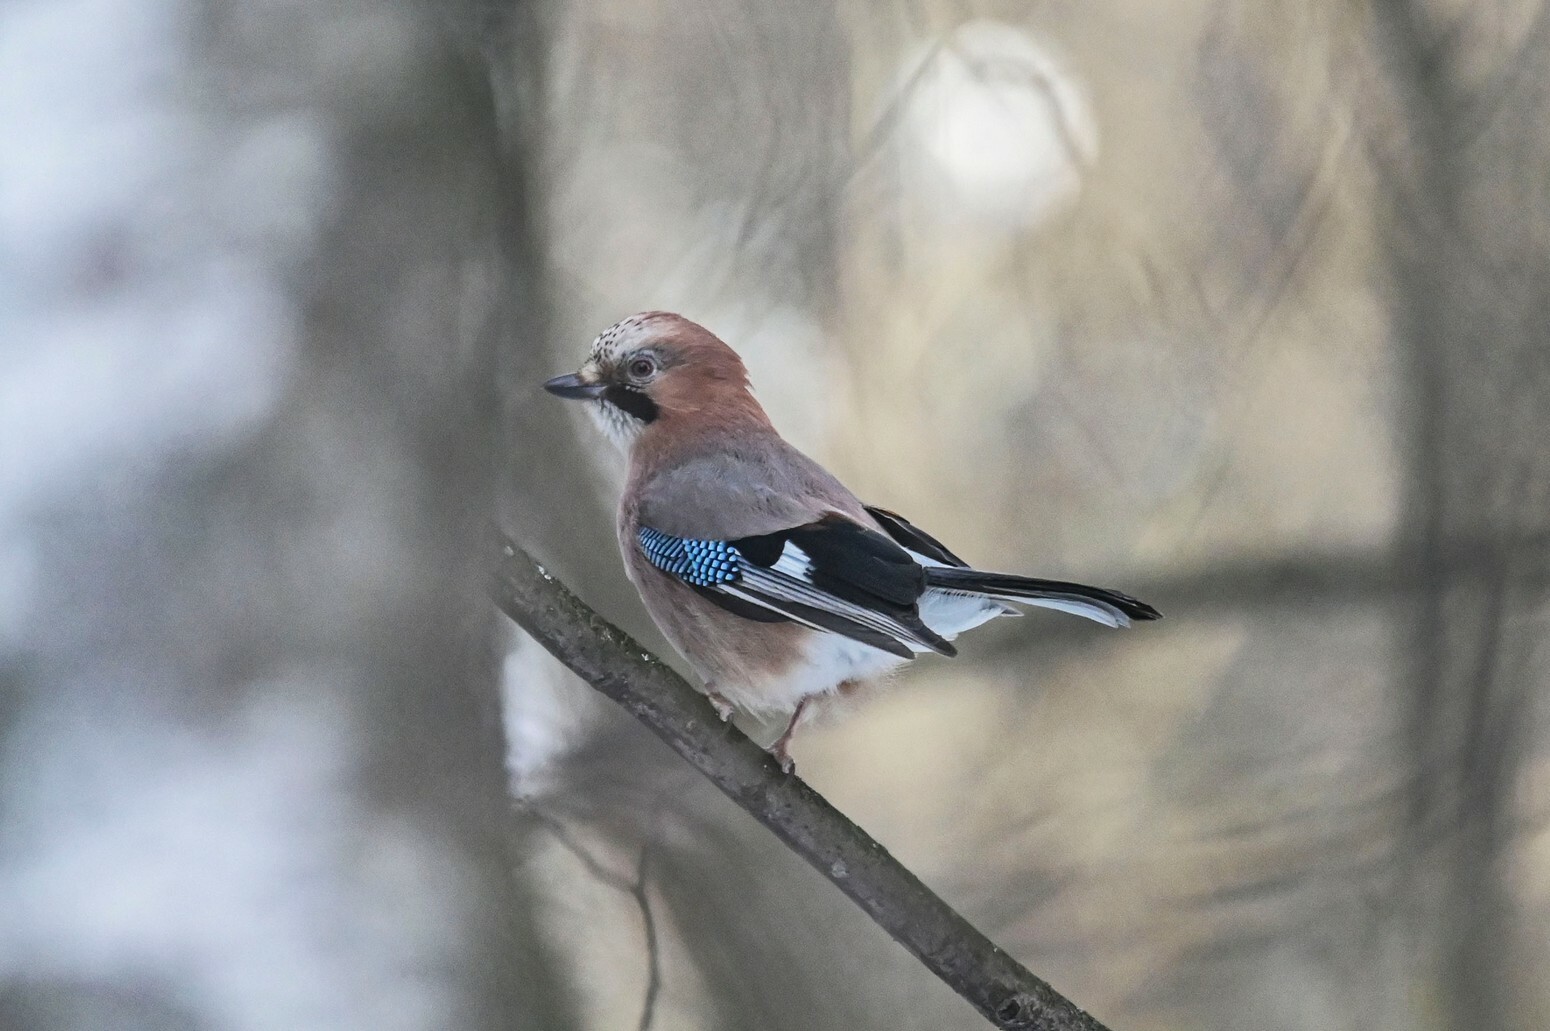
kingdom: Animalia
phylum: Chordata
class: Aves
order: Passeriformes
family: Corvidae
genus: Garrulus
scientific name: Garrulus glandarius
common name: Eurasian jay
